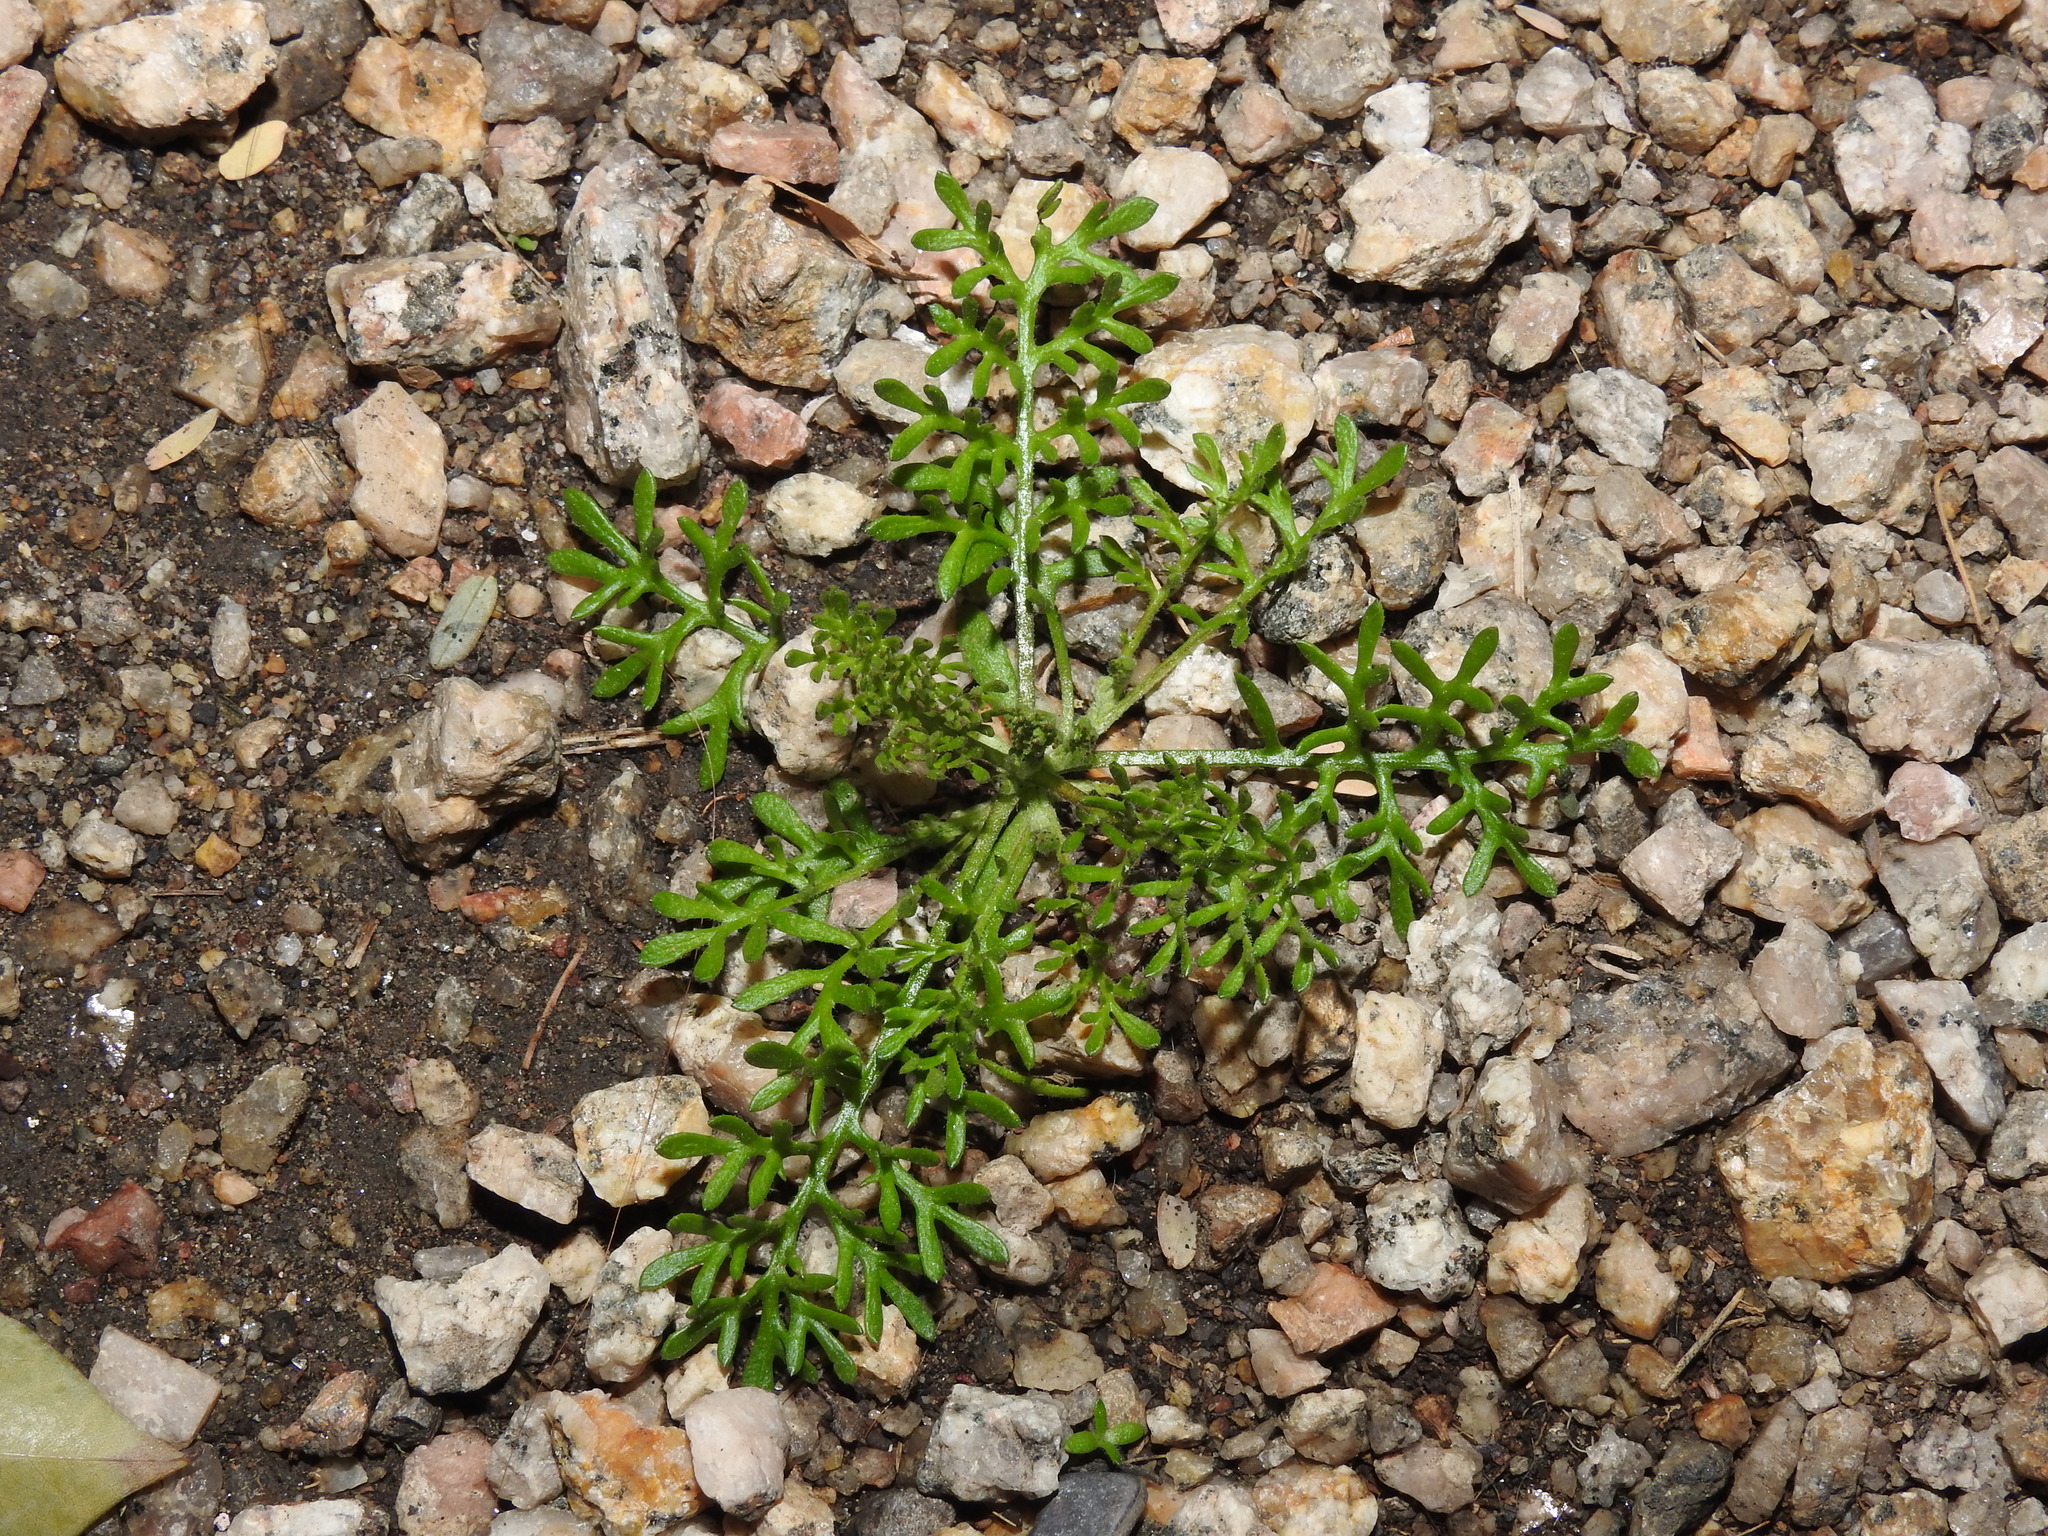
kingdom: Plantae
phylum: Tracheophyta
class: Magnoliopsida
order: Asterales
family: Asteraceae
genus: Oncosiphon
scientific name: Oncosiphon pilulifer
